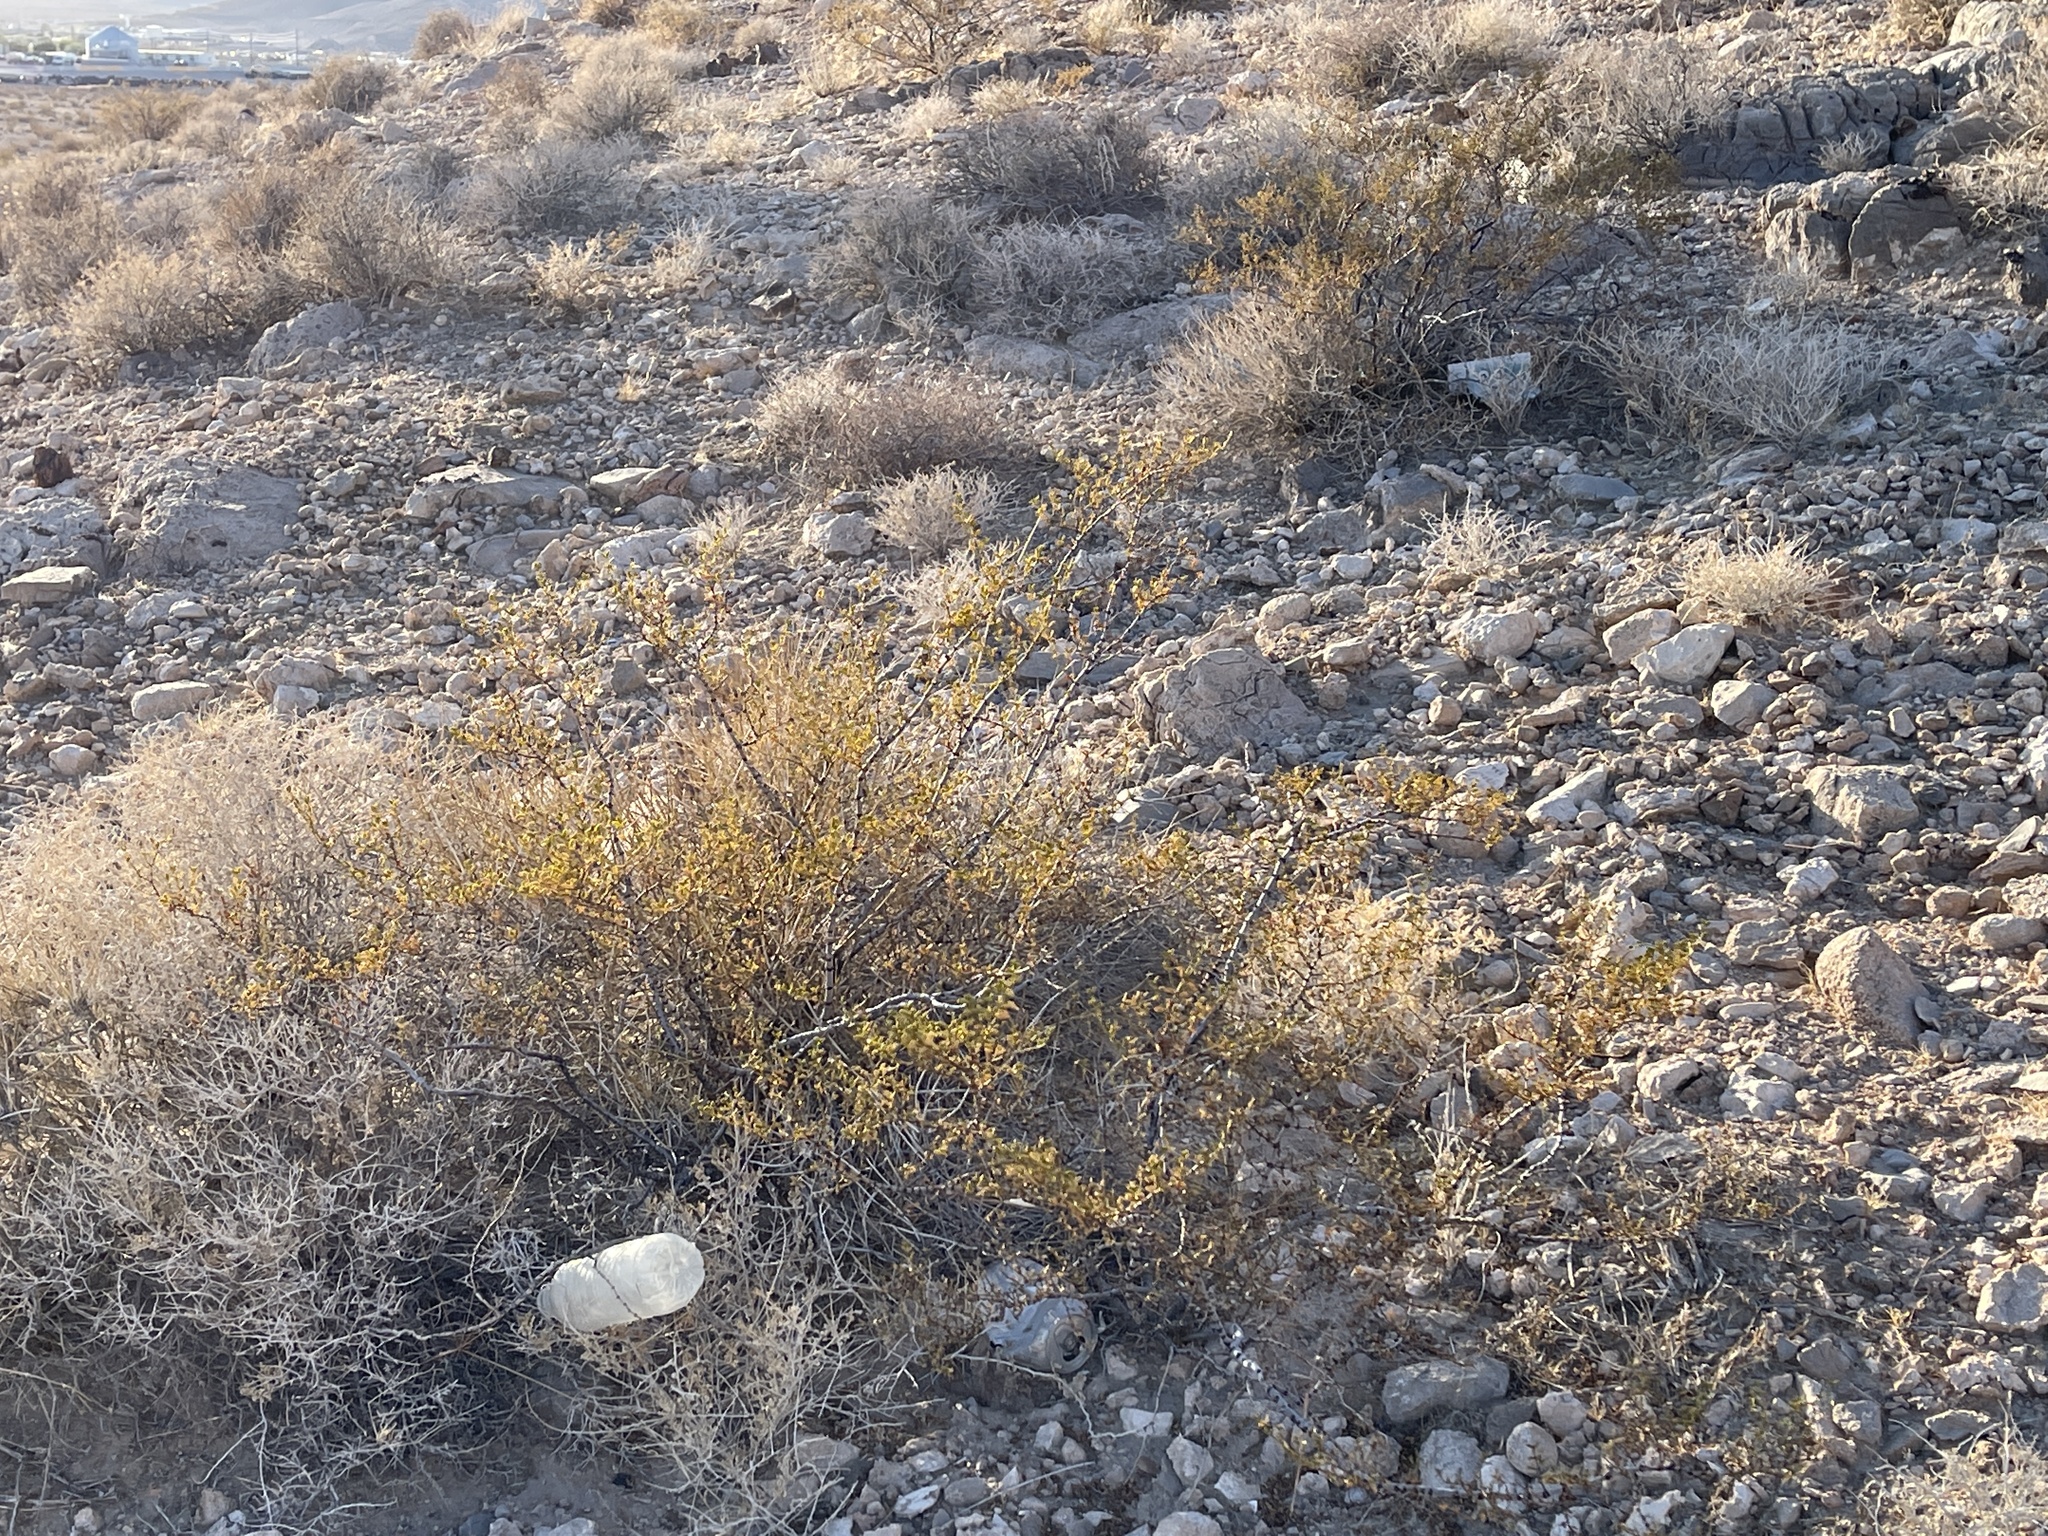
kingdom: Plantae
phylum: Tracheophyta
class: Magnoliopsida
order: Zygophyllales
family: Zygophyllaceae
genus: Larrea
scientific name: Larrea tridentata
